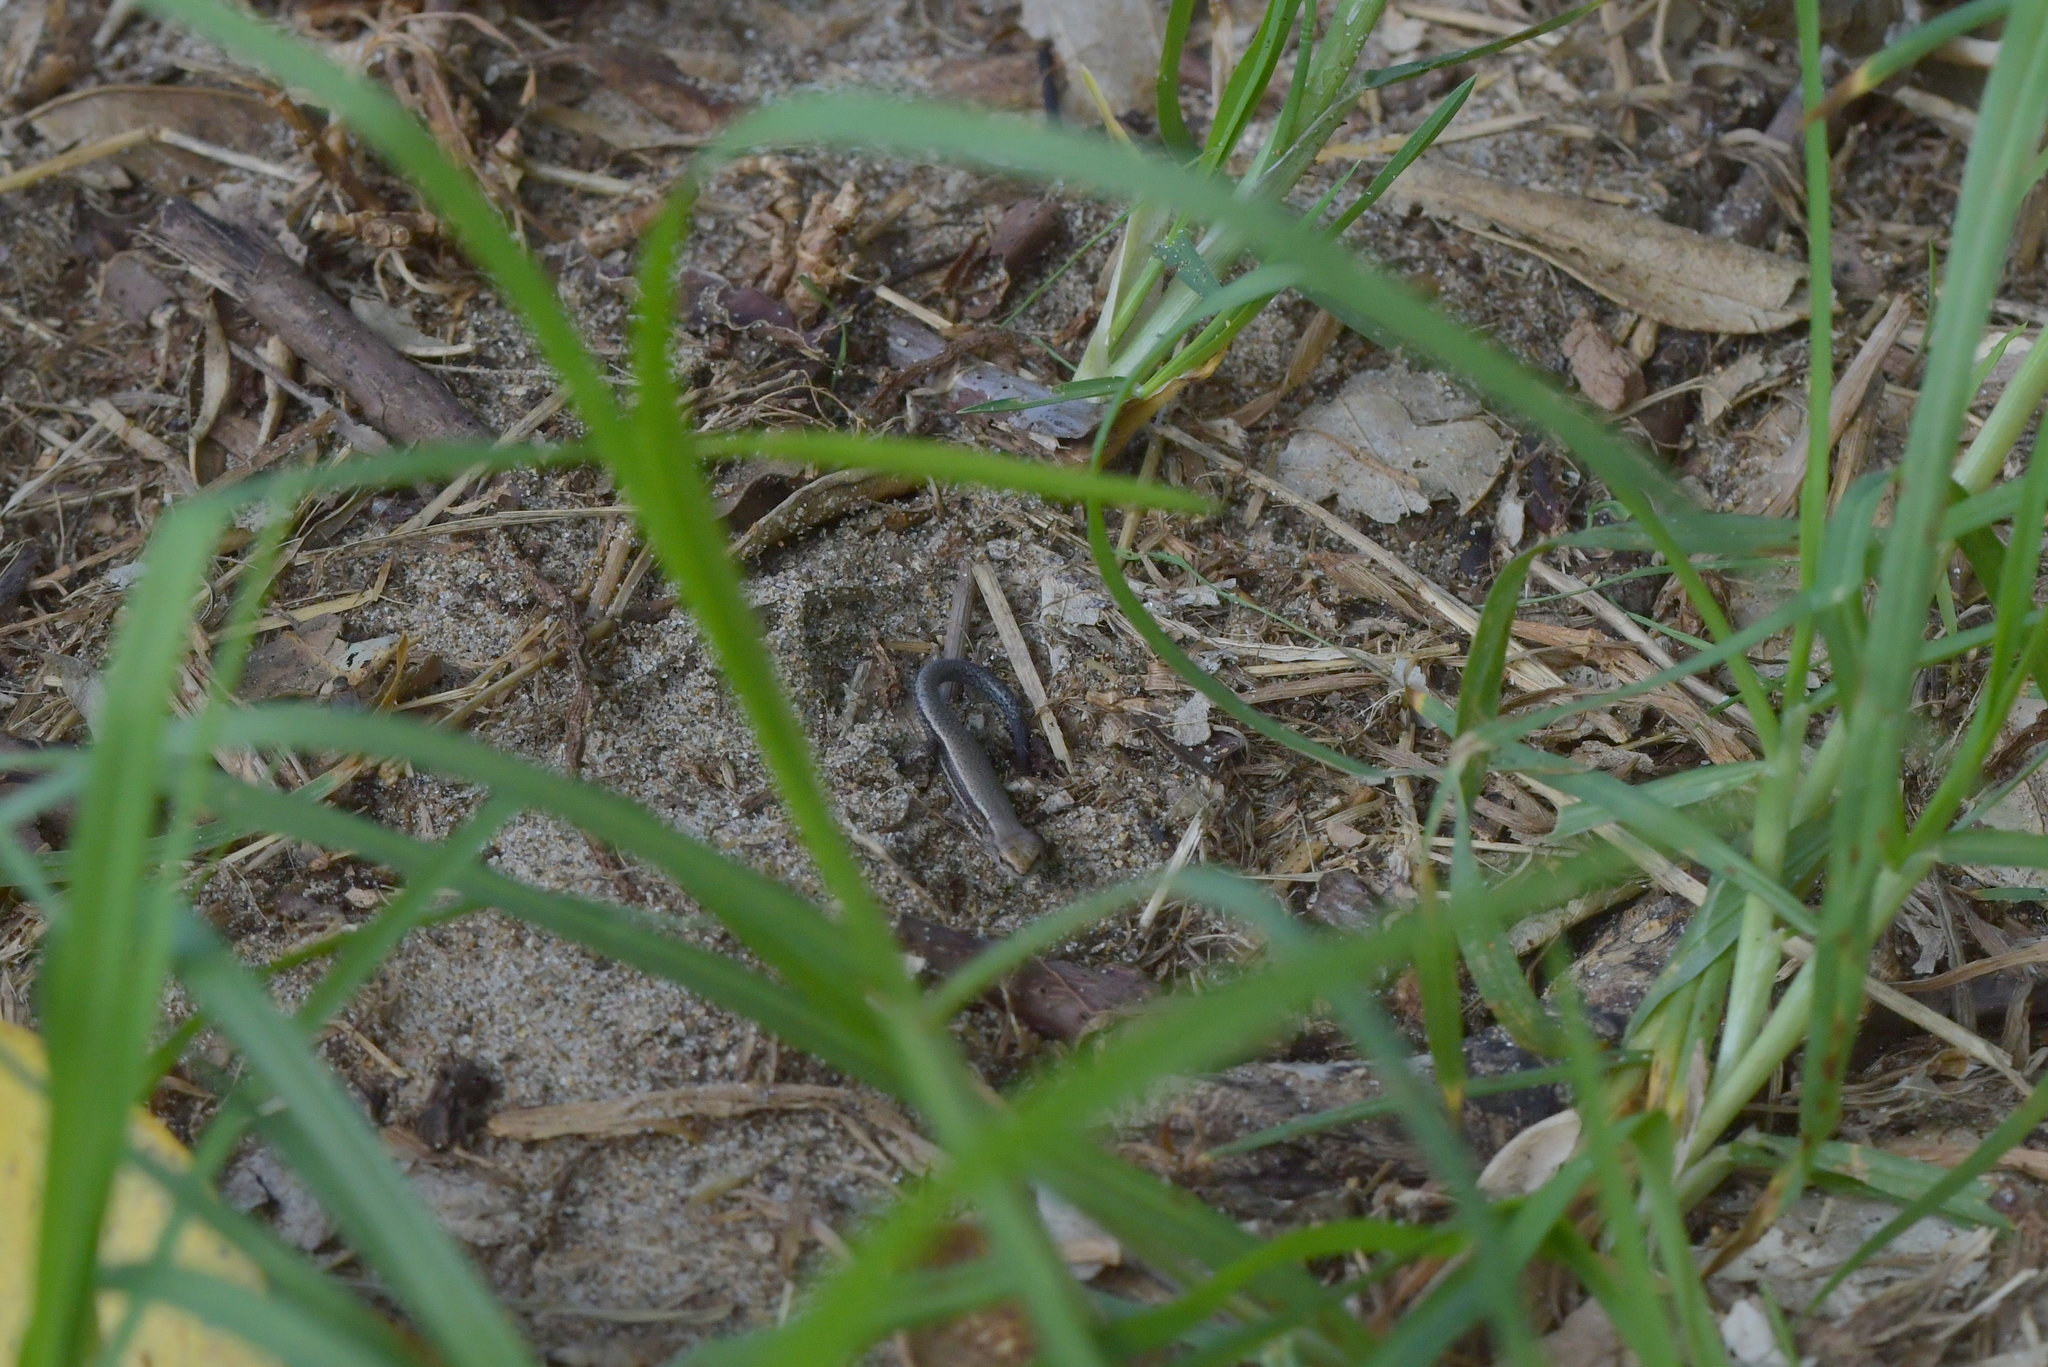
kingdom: Animalia
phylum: Chordata
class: Squamata
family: Scincidae
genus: Lampropholis
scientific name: Lampropholis delicata
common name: Plague skink
